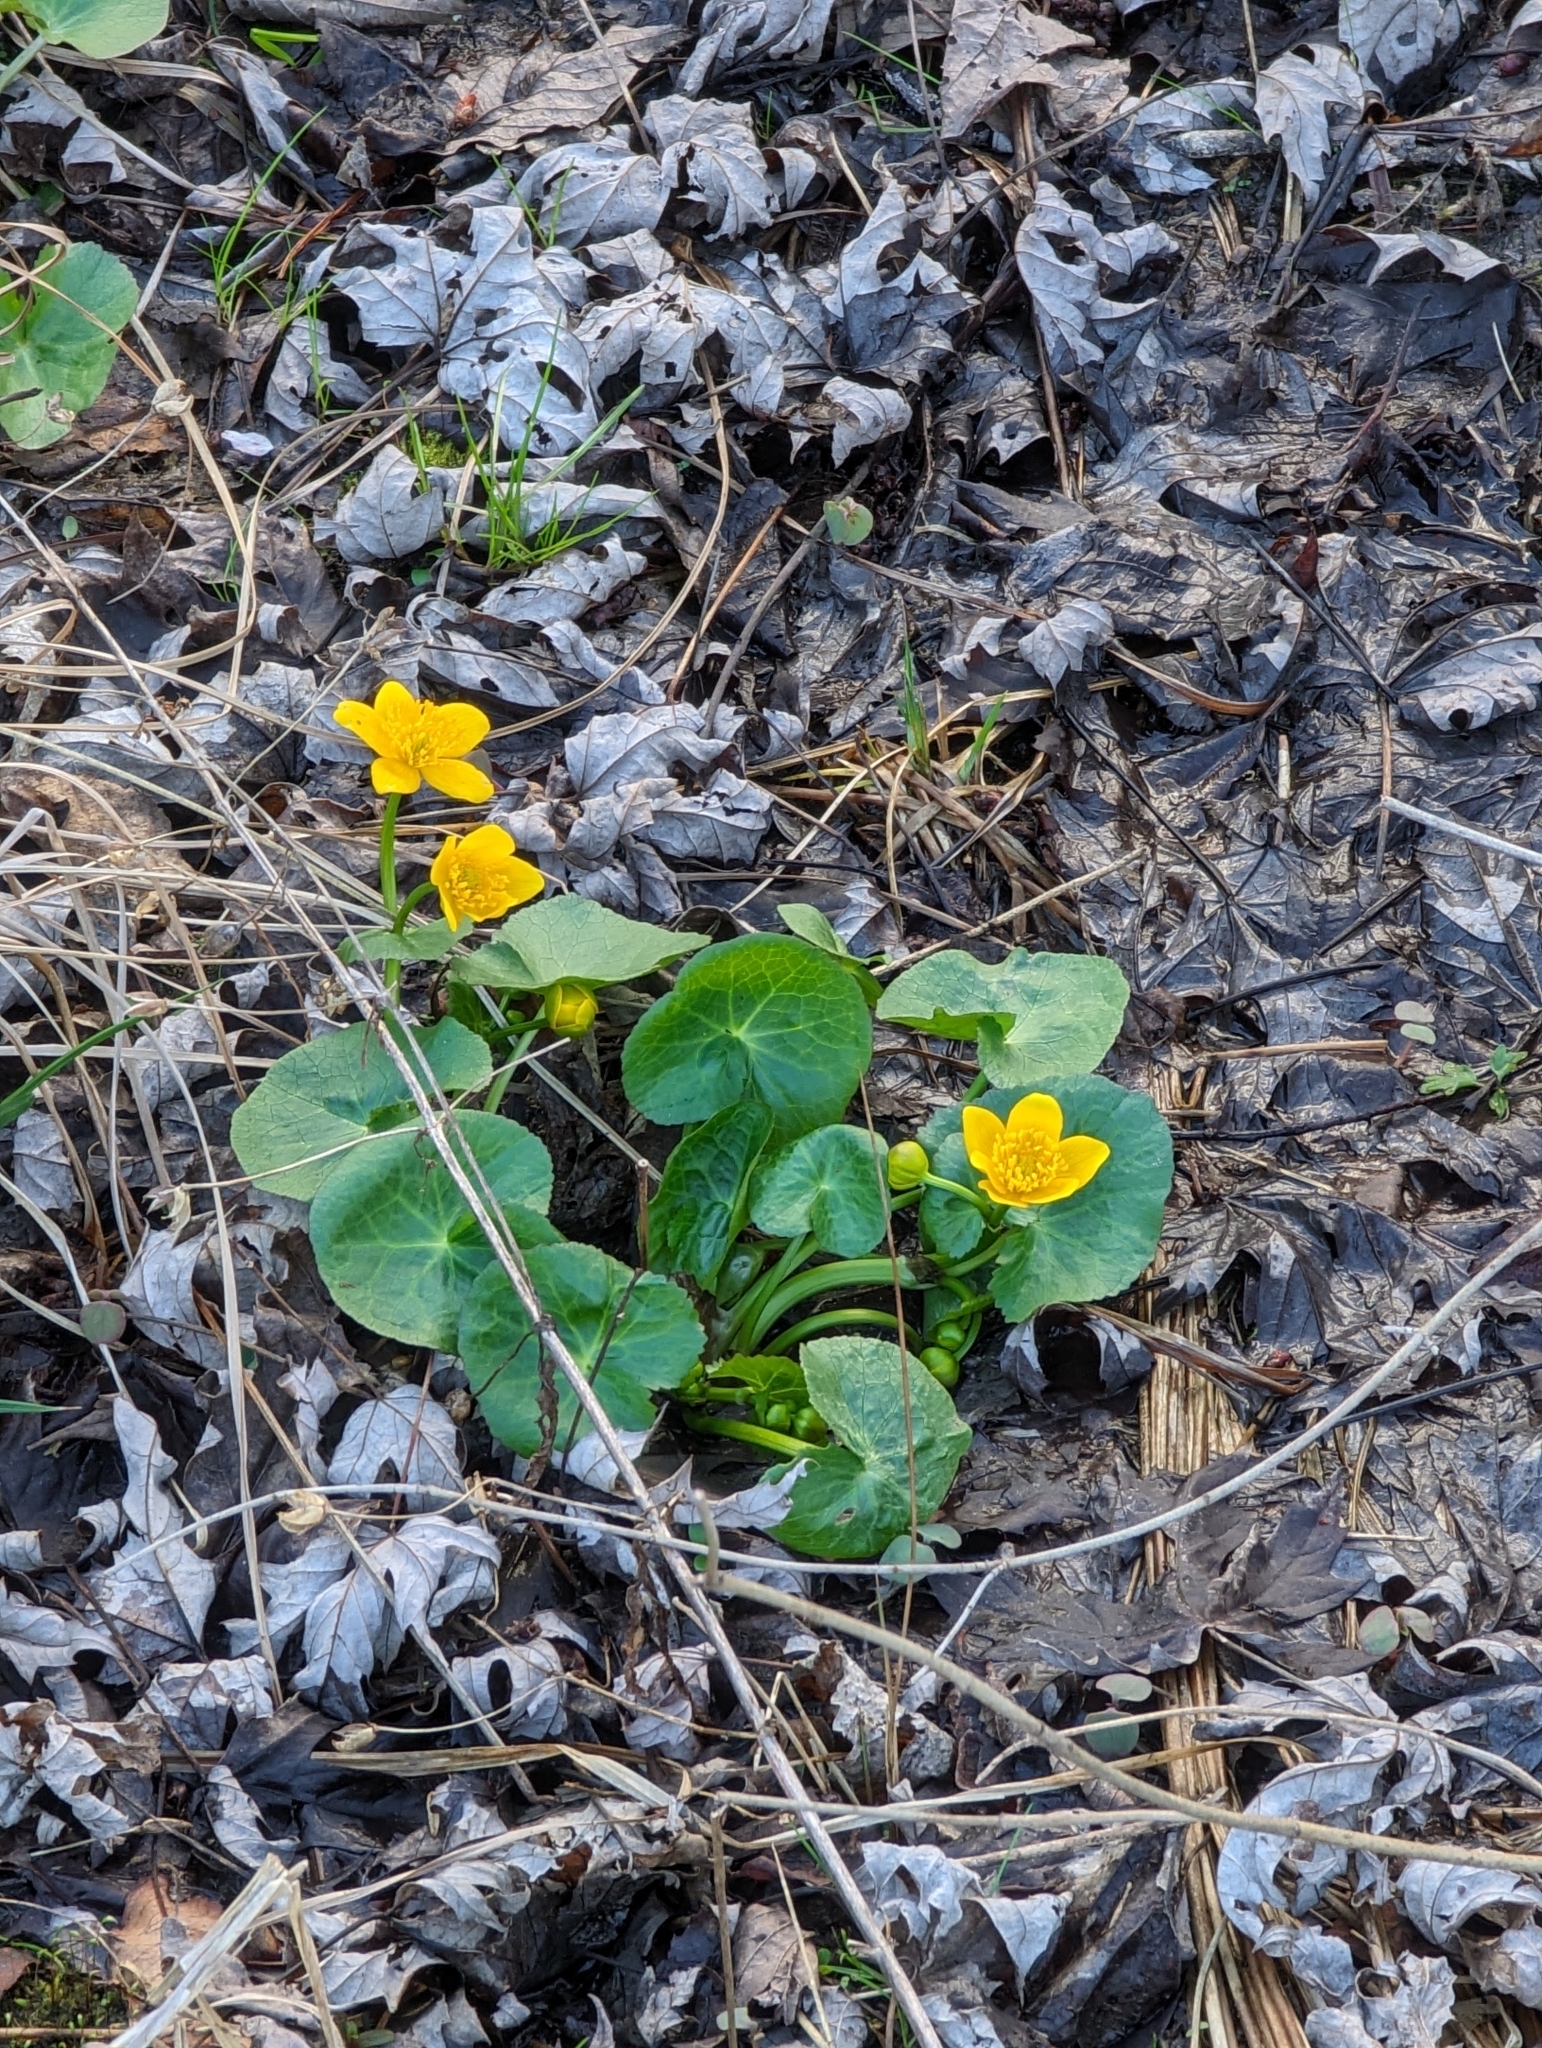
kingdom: Plantae
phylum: Tracheophyta
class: Magnoliopsida
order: Ranunculales
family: Ranunculaceae
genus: Caltha
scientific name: Caltha palustris
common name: Marsh marigold
